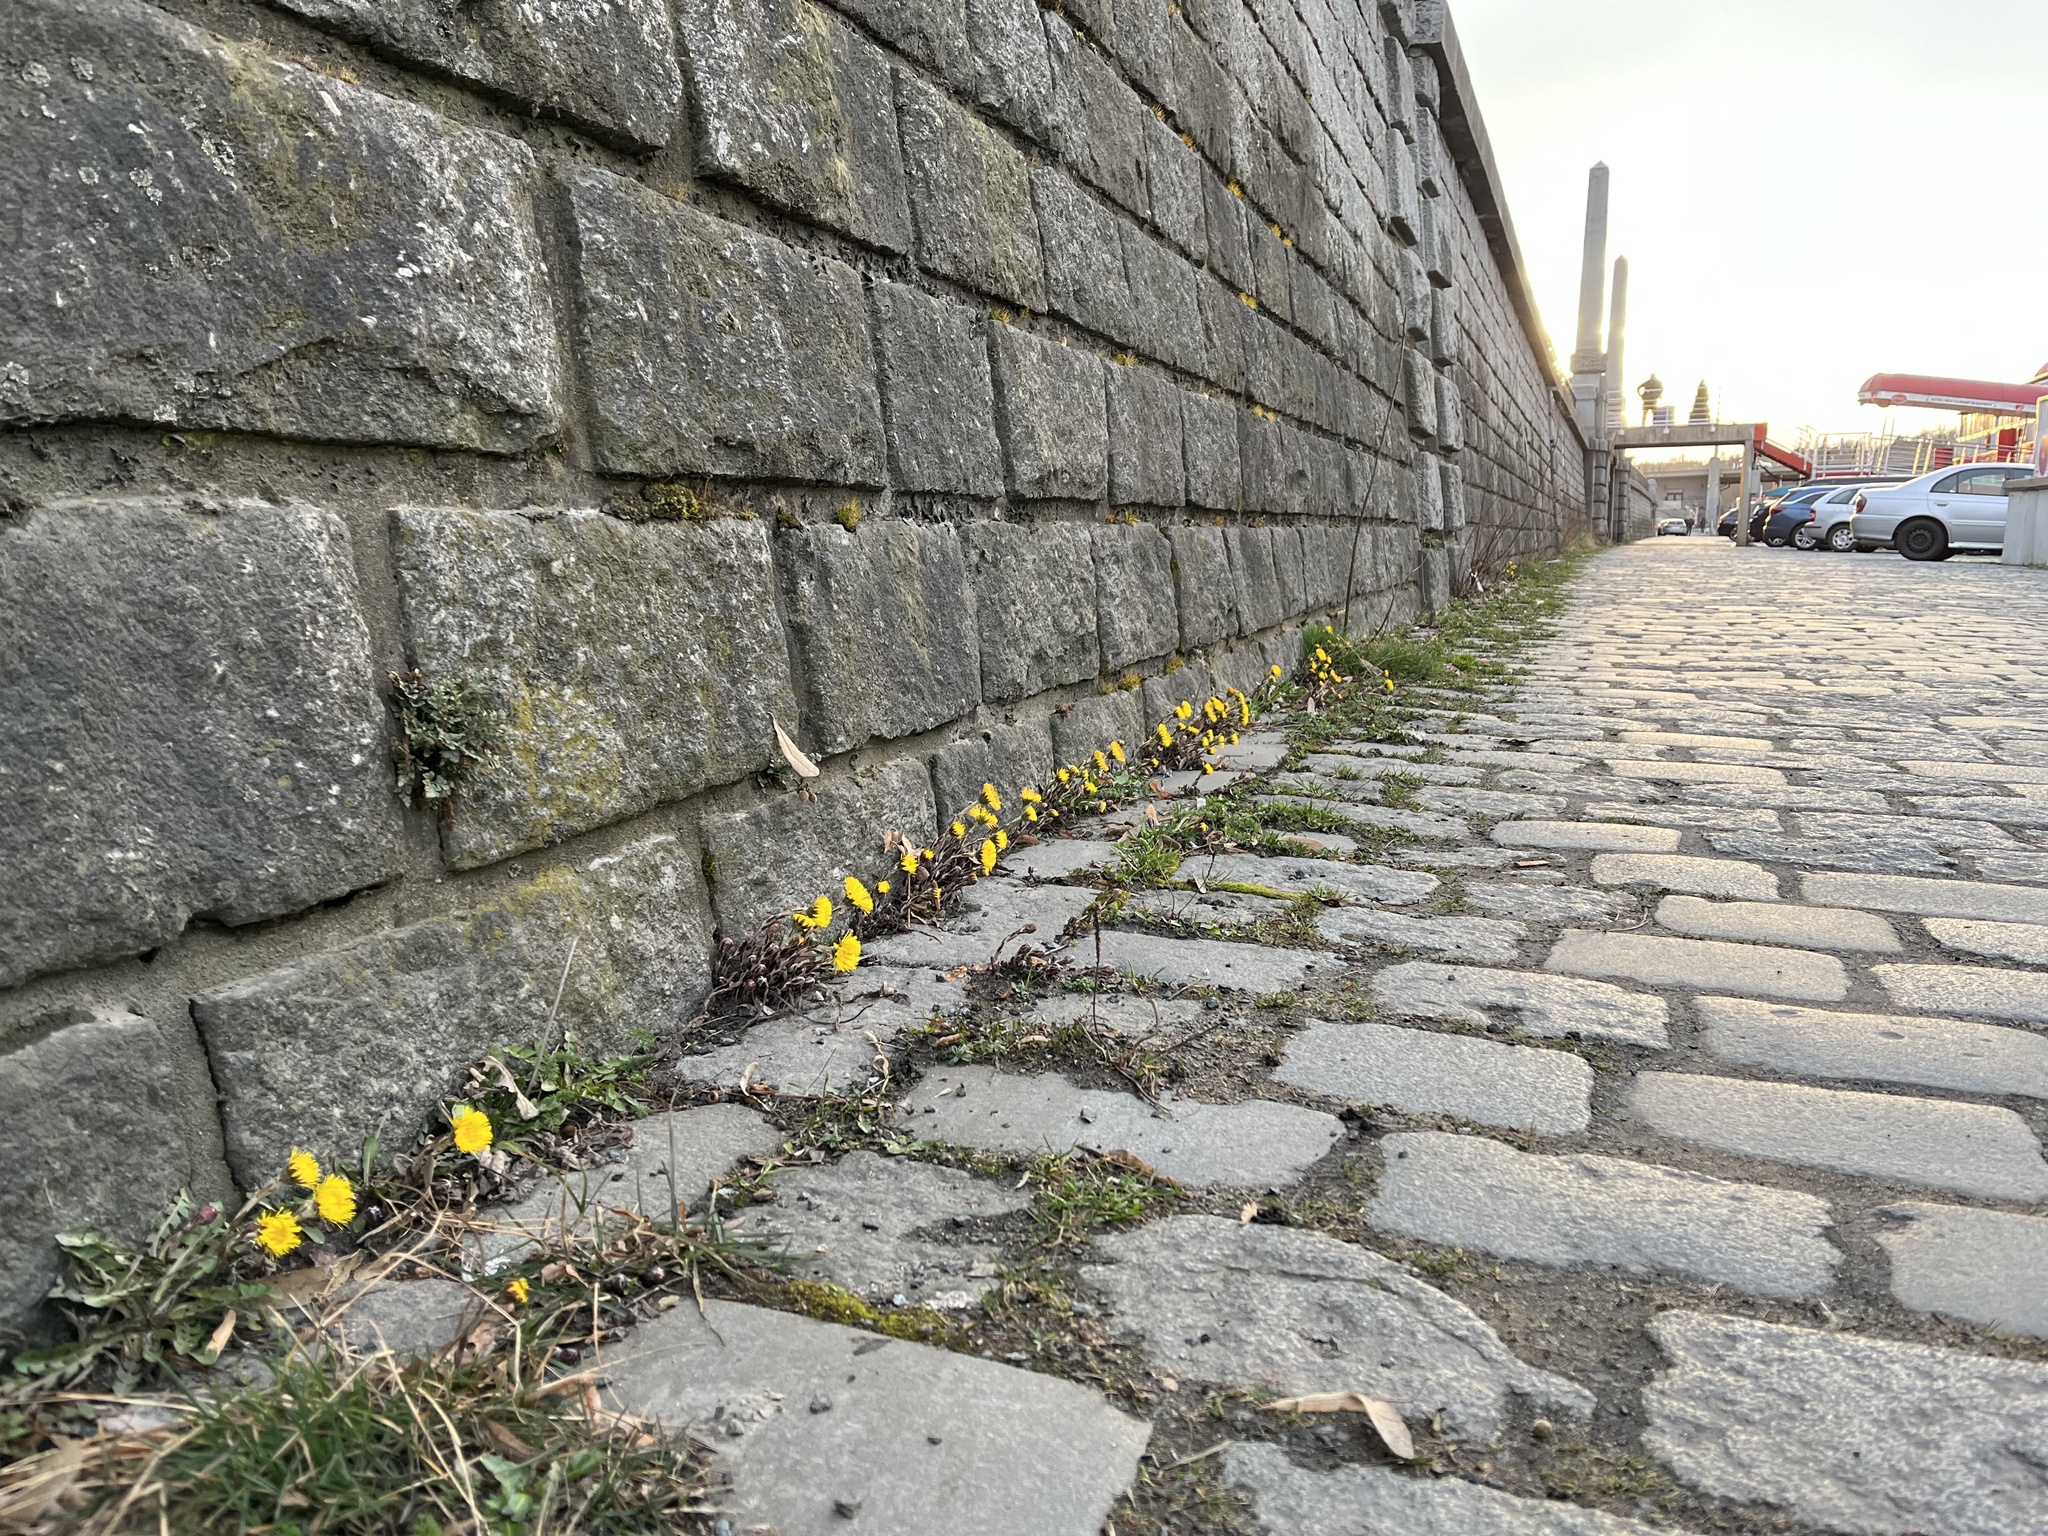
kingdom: Plantae
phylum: Tracheophyta
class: Magnoliopsida
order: Asterales
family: Asteraceae
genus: Tussilago
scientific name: Tussilago farfara
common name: Coltsfoot
